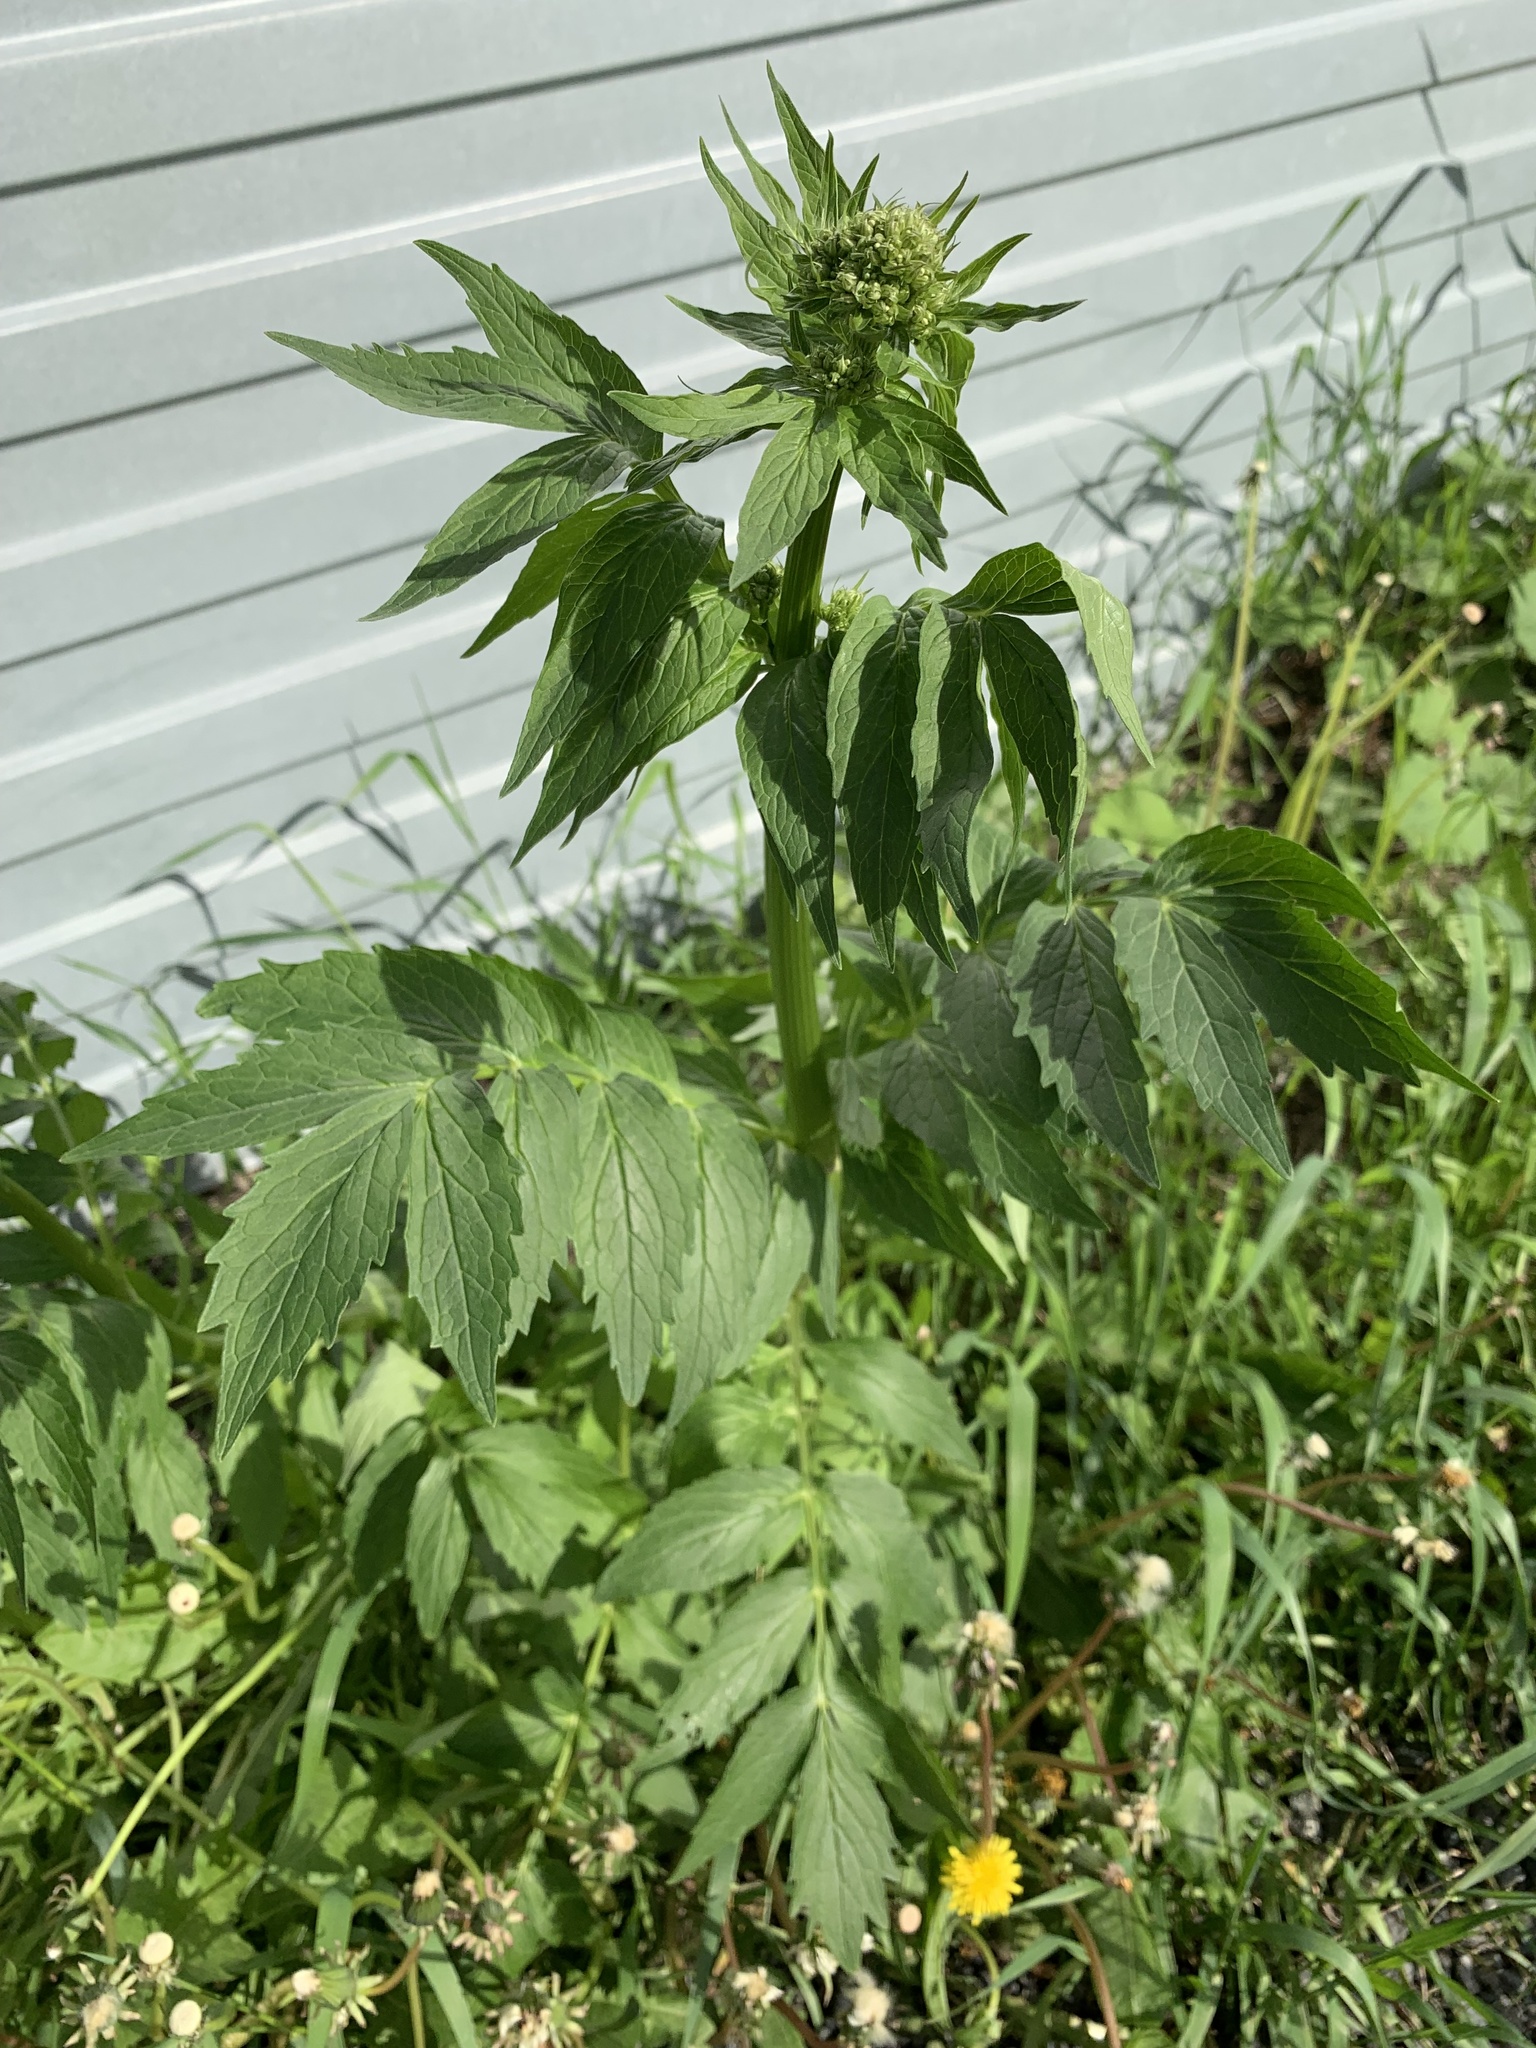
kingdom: Plantae
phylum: Tracheophyta
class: Magnoliopsida
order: Dipsacales
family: Caprifoliaceae
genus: Valeriana
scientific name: Valeriana wolgensis
